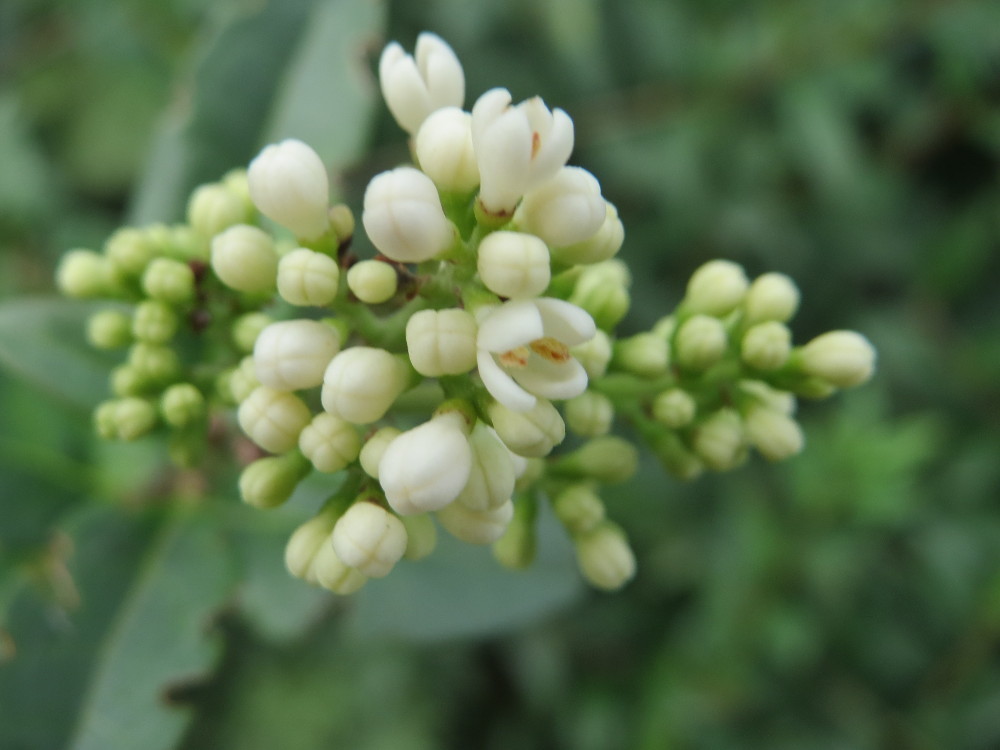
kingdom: Plantae
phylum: Tracheophyta
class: Magnoliopsida
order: Lamiales
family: Oleaceae
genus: Ligustrum
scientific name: Ligustrum vulgare
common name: Wild privet
